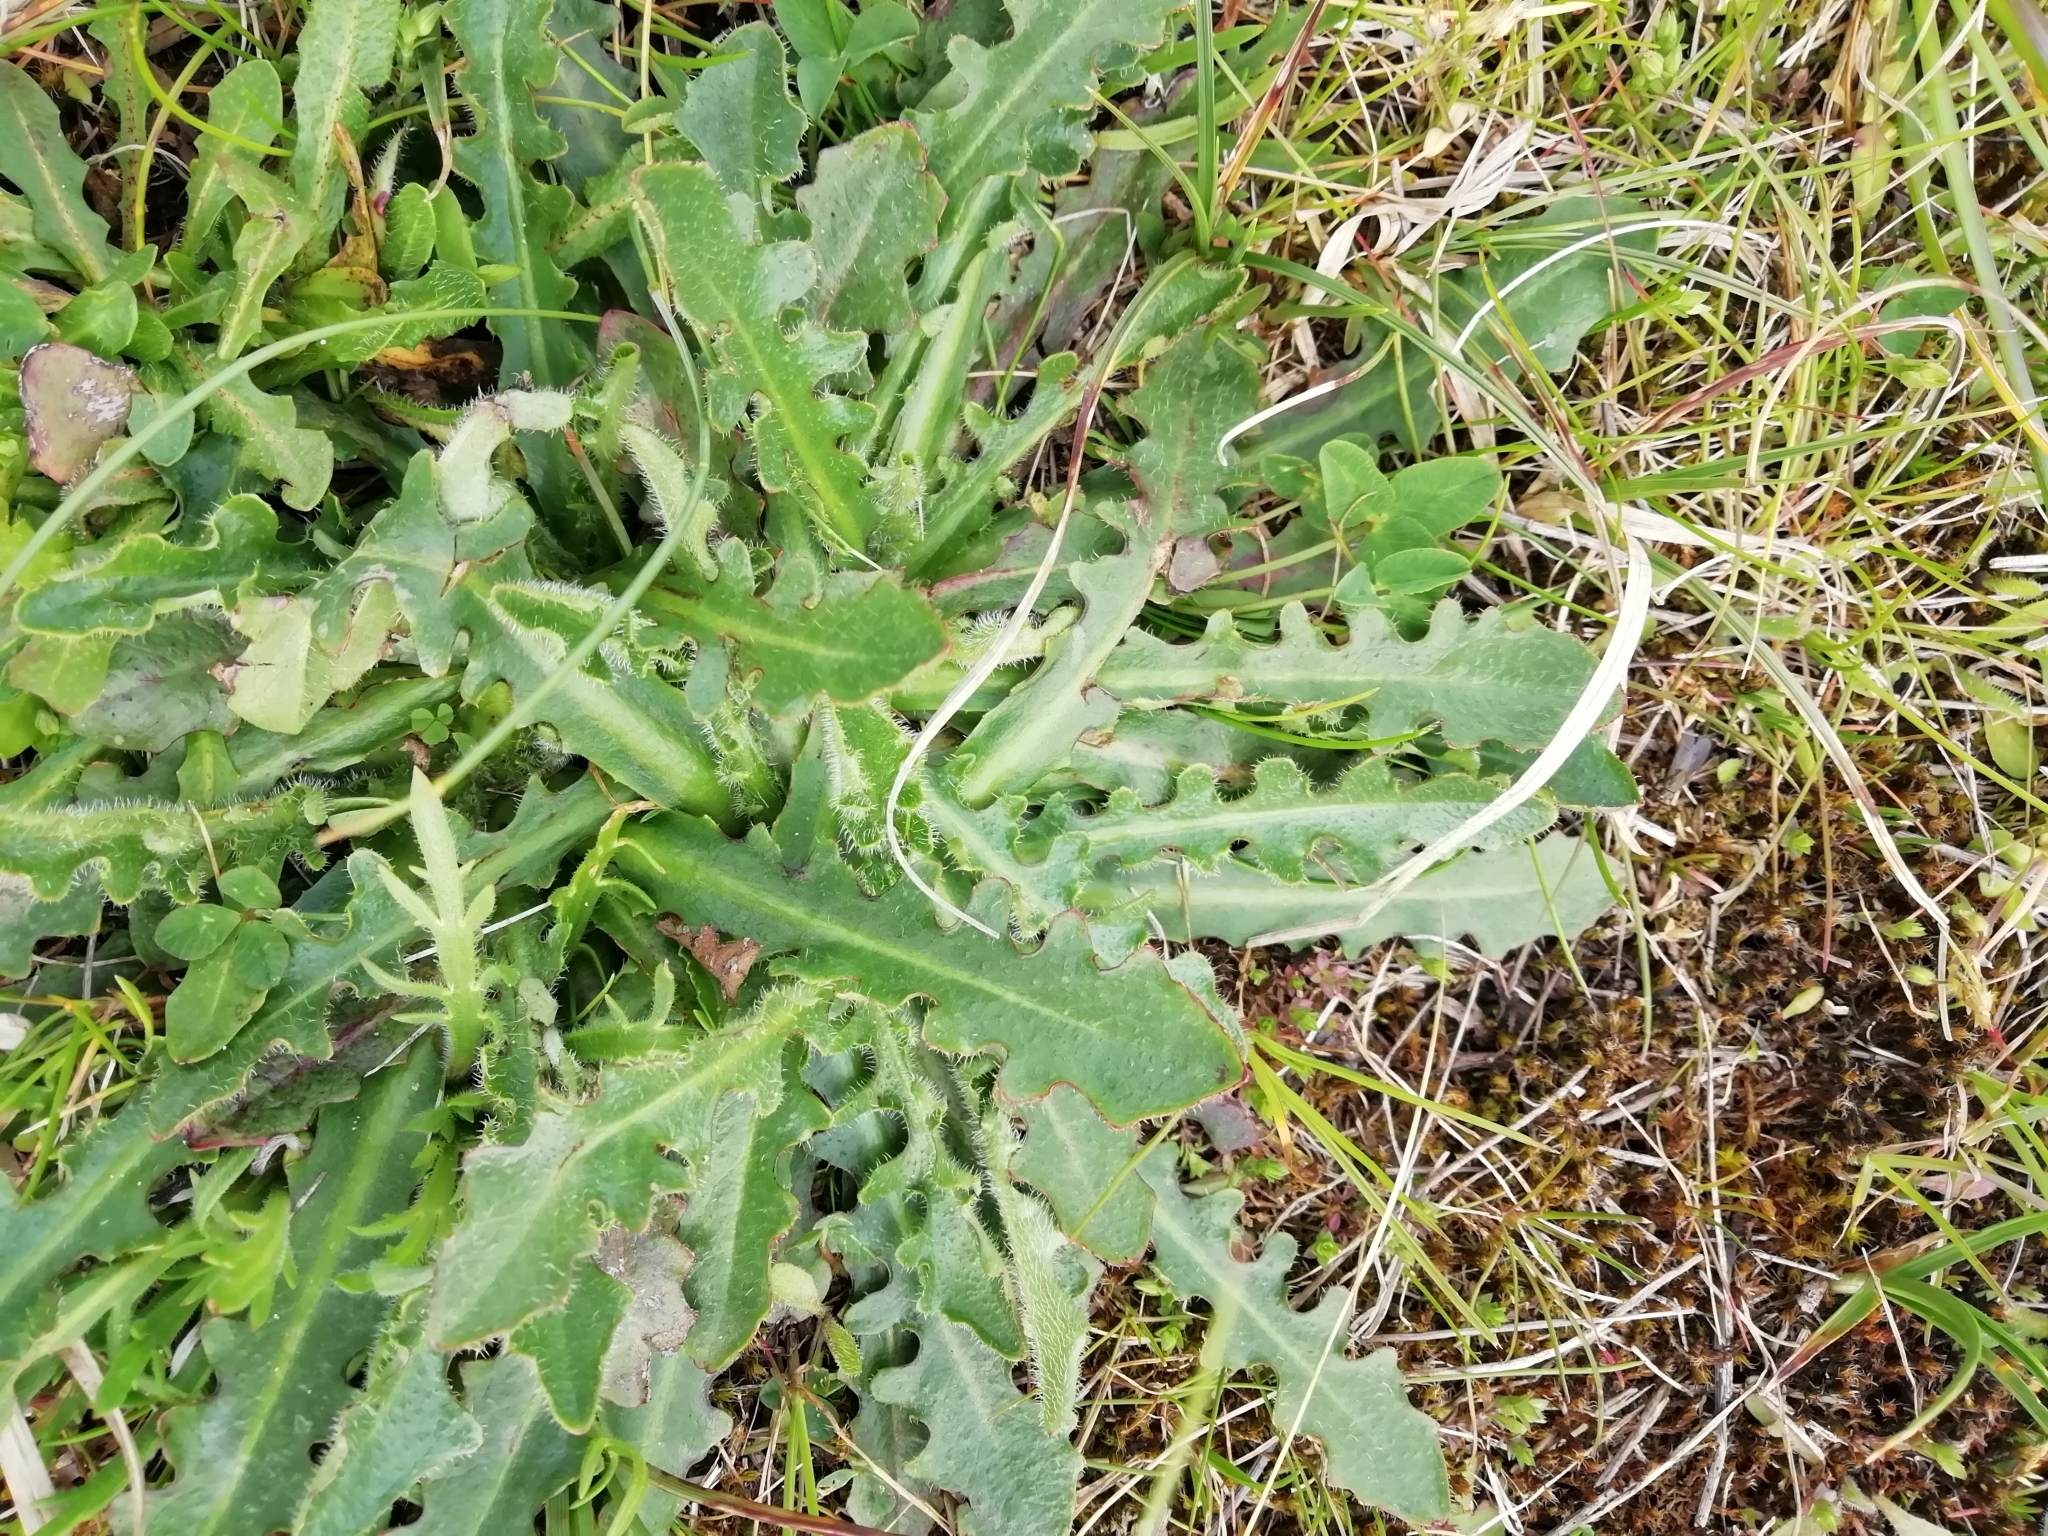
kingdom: Plantae
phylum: Tracheophyta
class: Magnoliopsida
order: Asterales
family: Asteraceae
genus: Hypochaeris
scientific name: Hypochaeris radicata
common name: Flatweed
